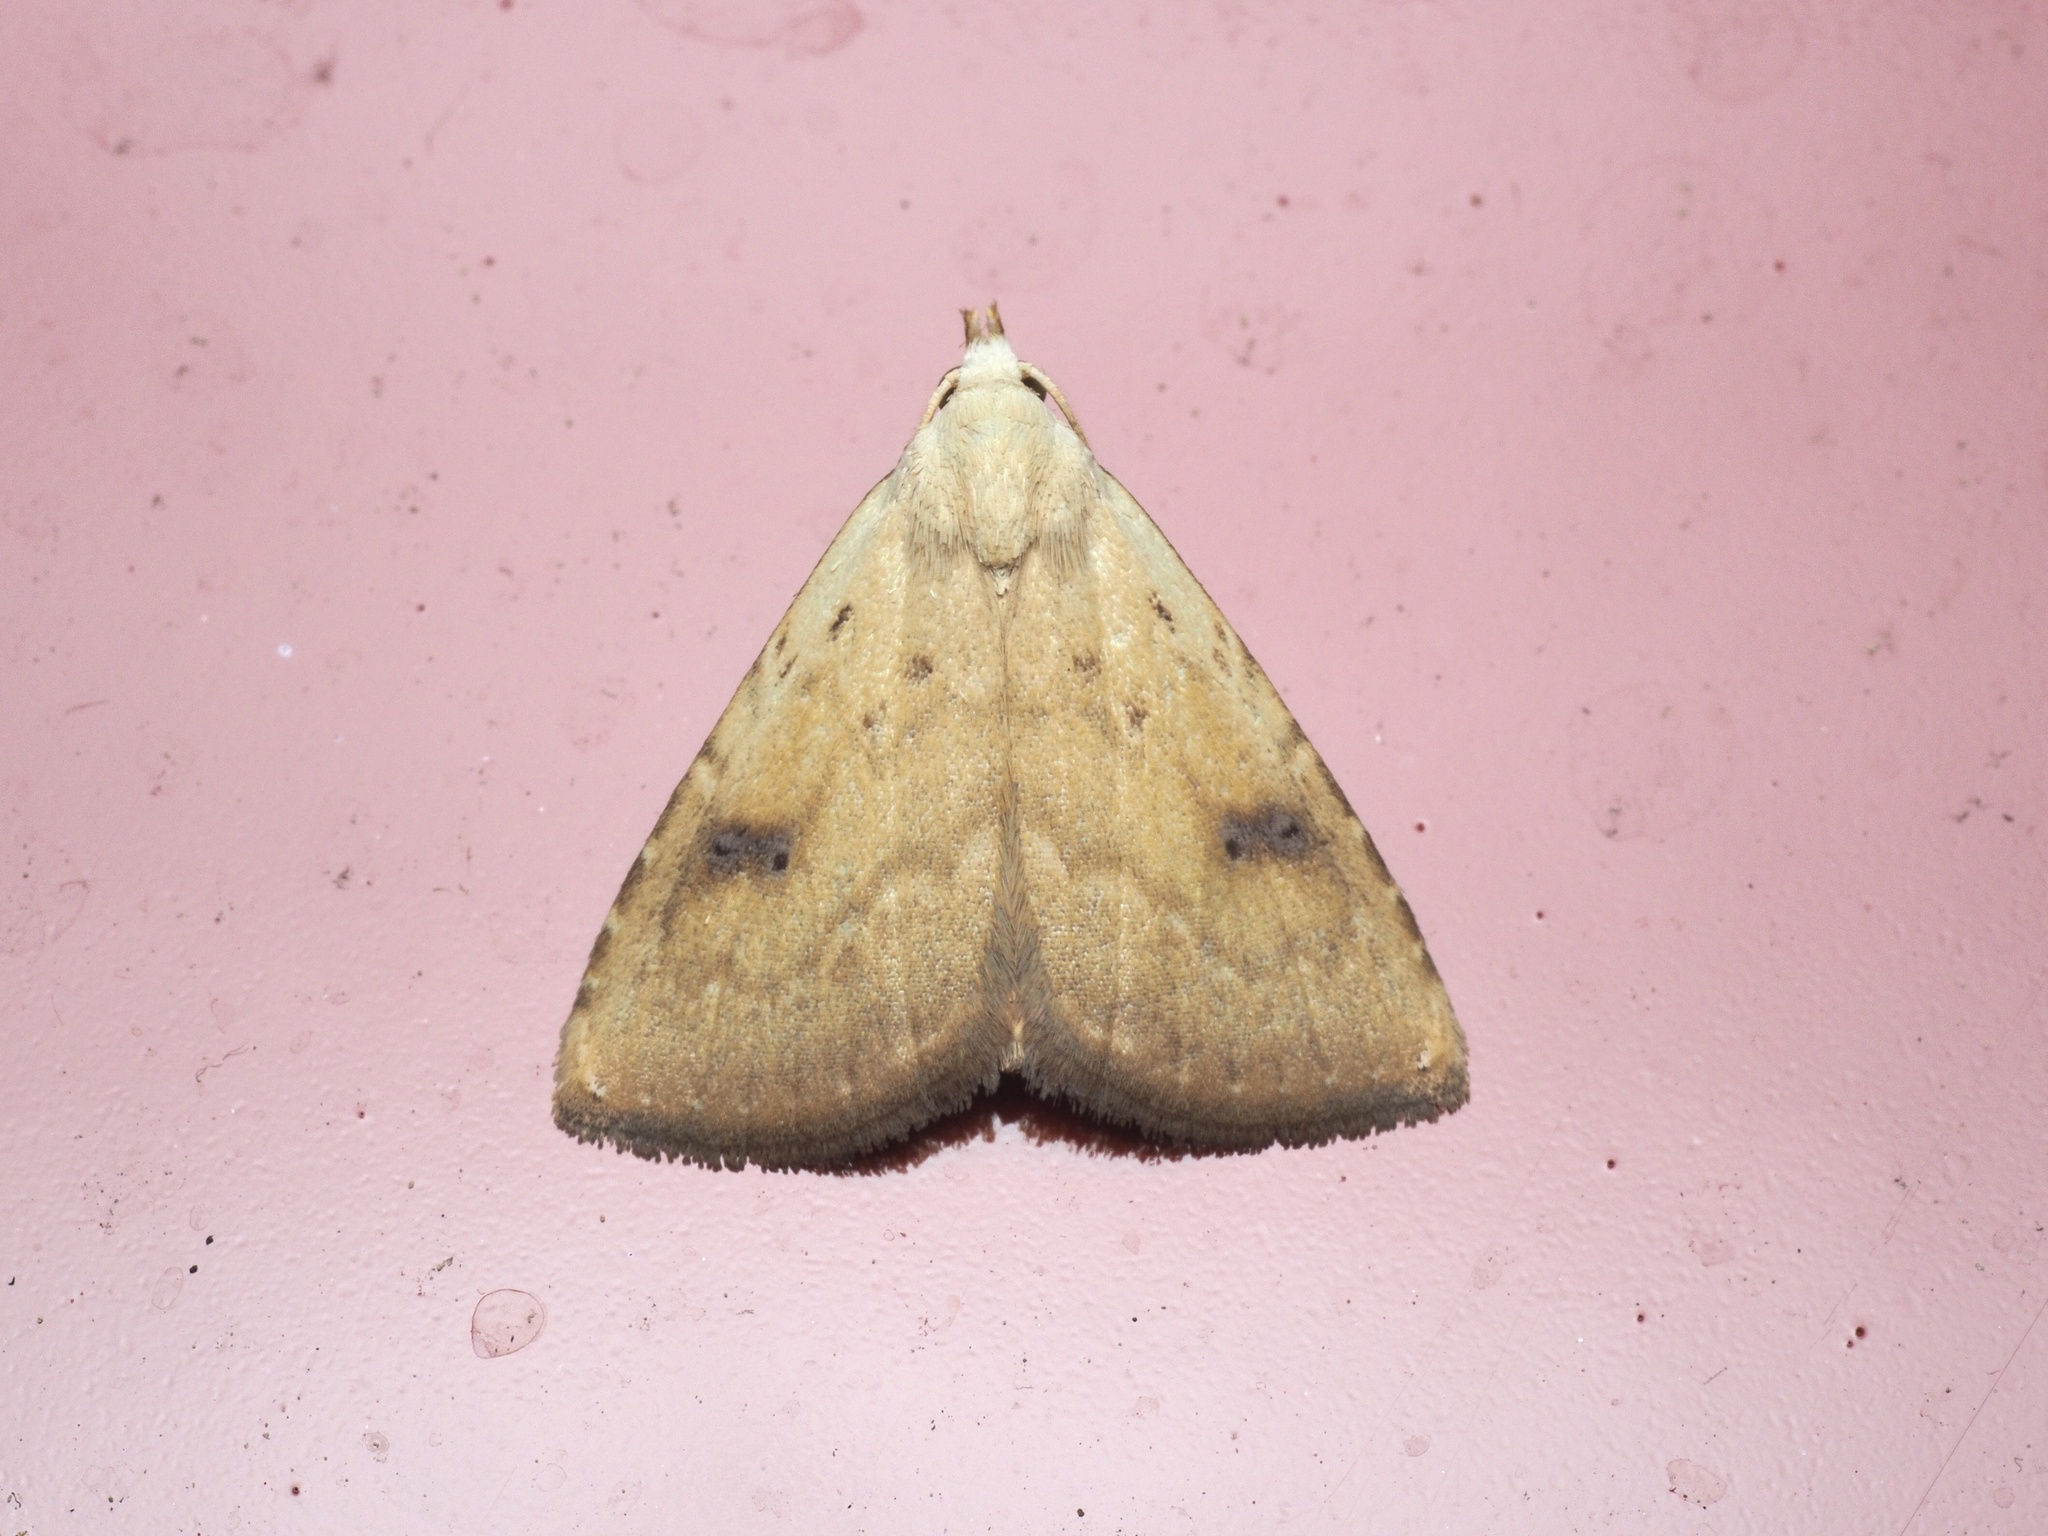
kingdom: Animalia
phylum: Arthropoda
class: Insecta
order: Lepidoptera
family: Erebidae
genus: Rivula
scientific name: Rivula sericealis
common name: Straw dot
